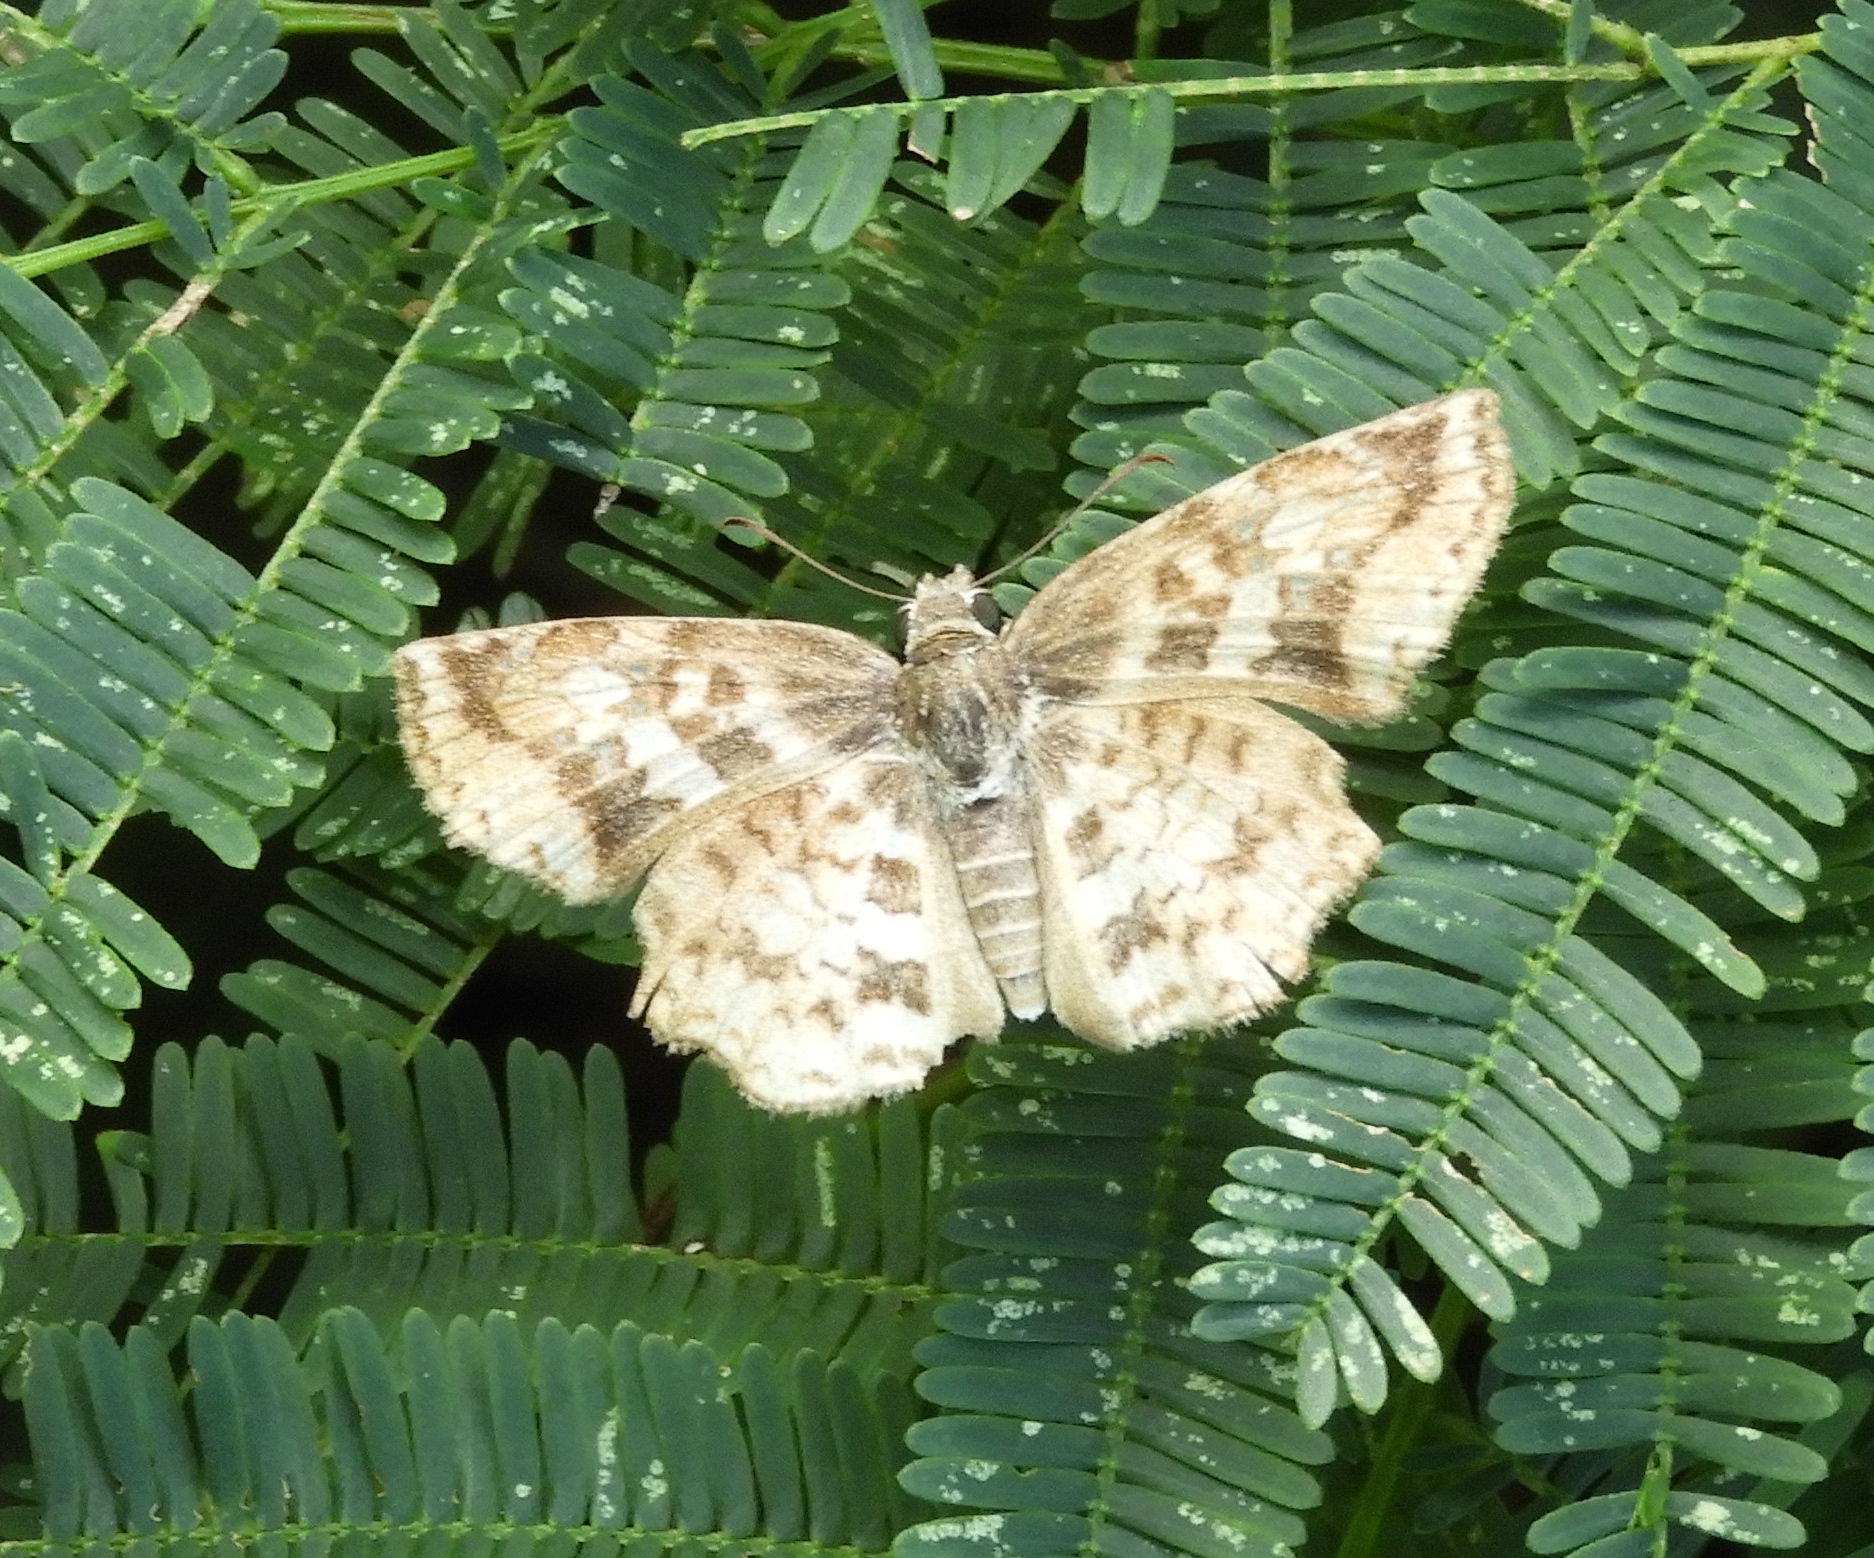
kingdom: Animalia
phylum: Arthropoda
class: Insecta
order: Lepidoptera
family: Hesperiidae
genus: Pyrginae
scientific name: Pyrginae
